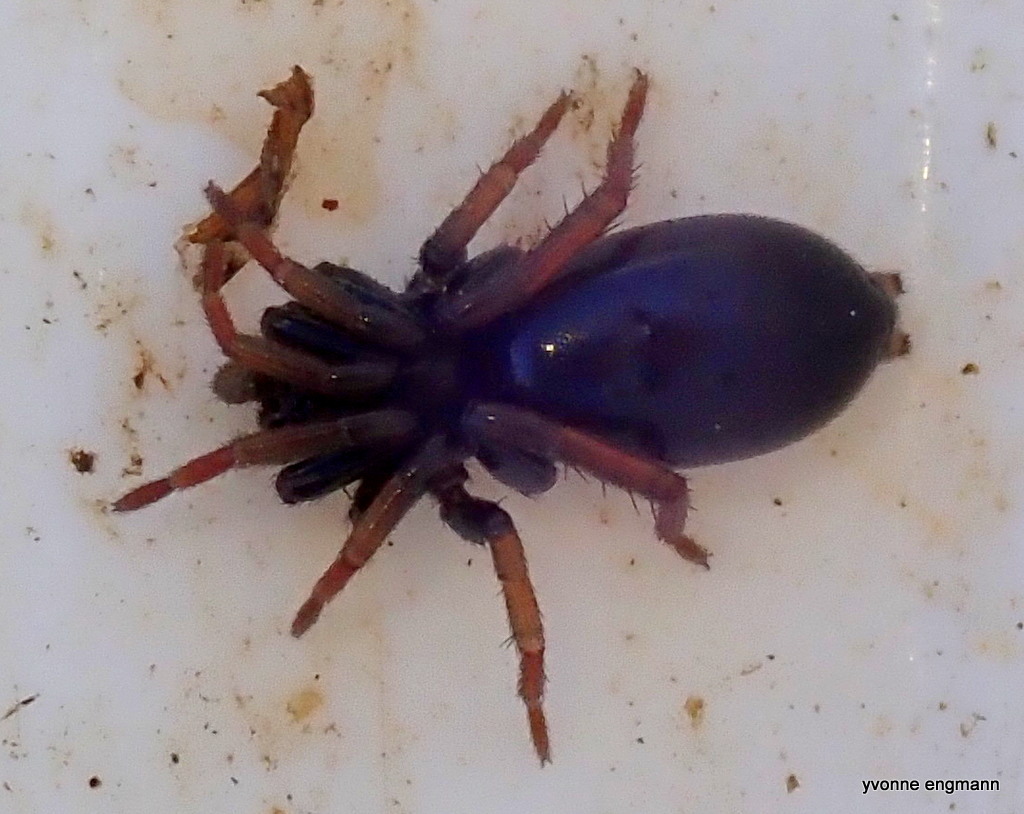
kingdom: Animalia
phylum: Arthropoda
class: Arachnida
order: Araneae
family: Gnaphosidae
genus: Trachyzelotes
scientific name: Trachyzelotes pedestris
